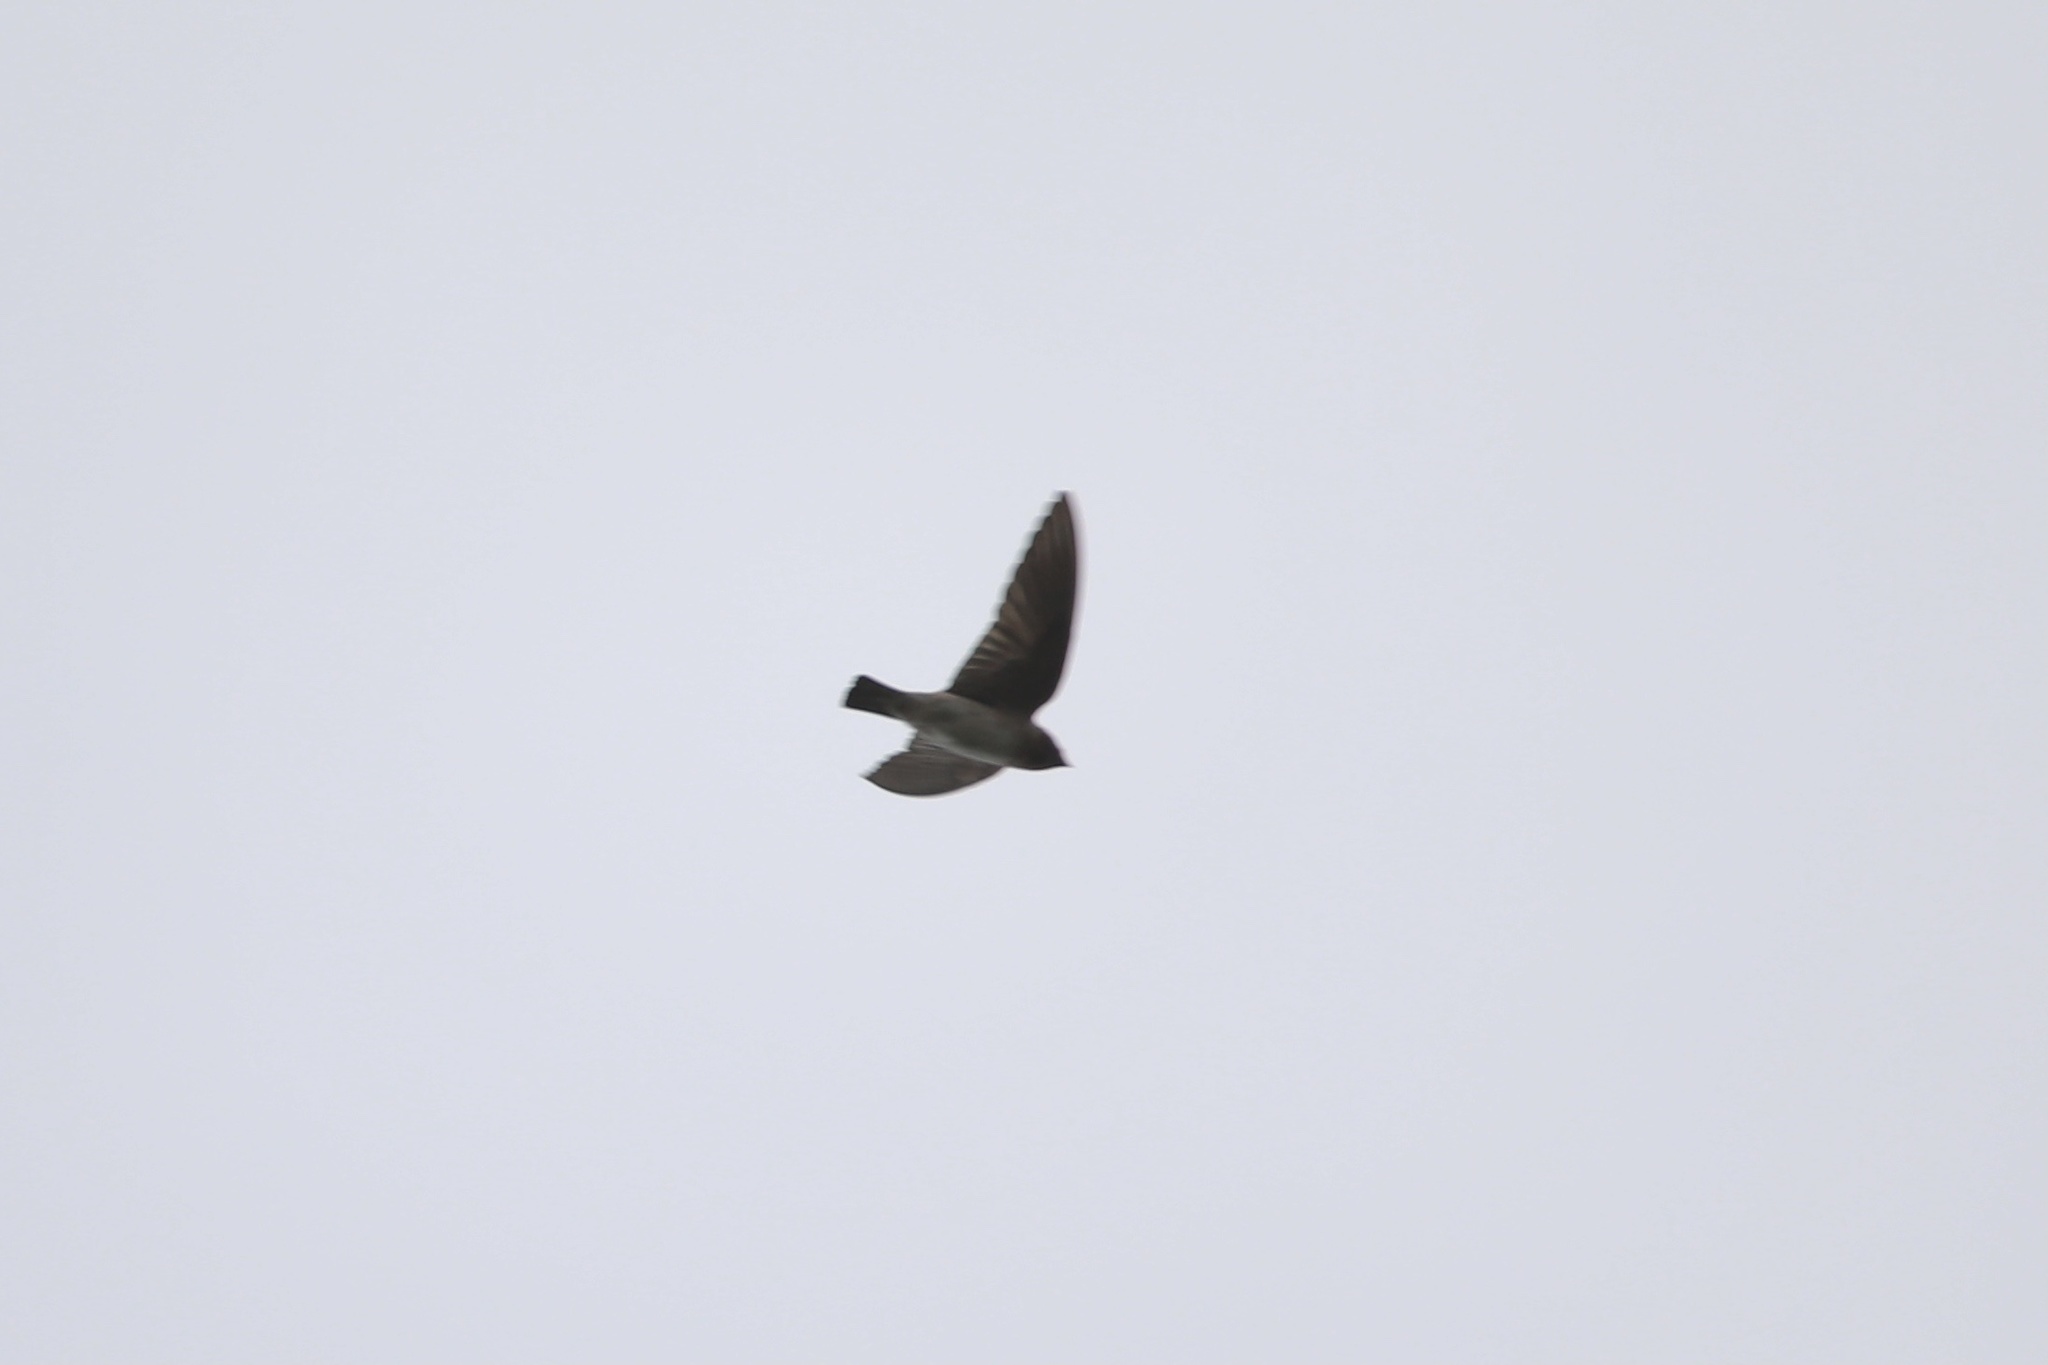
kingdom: Animalia
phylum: Chordata
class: Aves
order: Passeriformes
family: Hirundinidae
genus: Petrochelidon
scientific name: Petrochelidon pyrrhonota
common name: American cliff swallow
